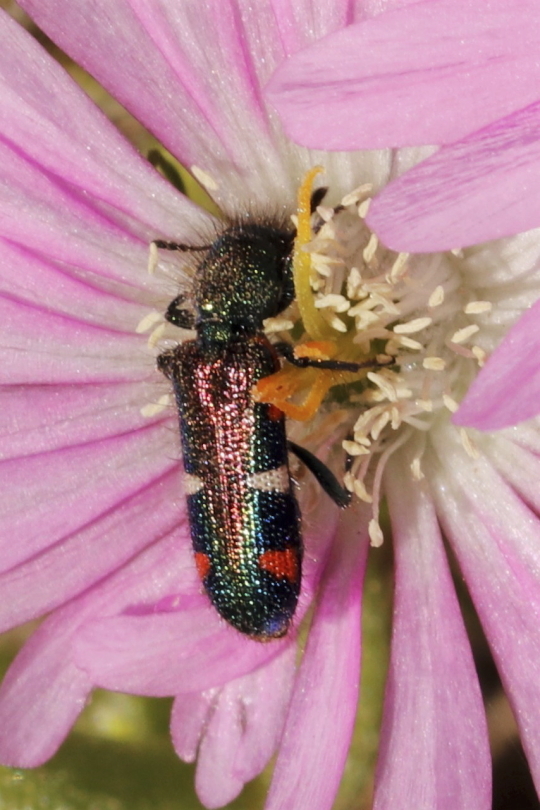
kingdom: Animalia
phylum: Arthropoda
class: Insecta
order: Coleoptera
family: Cleridae
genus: Trichodes
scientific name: Trichodes aulicus
